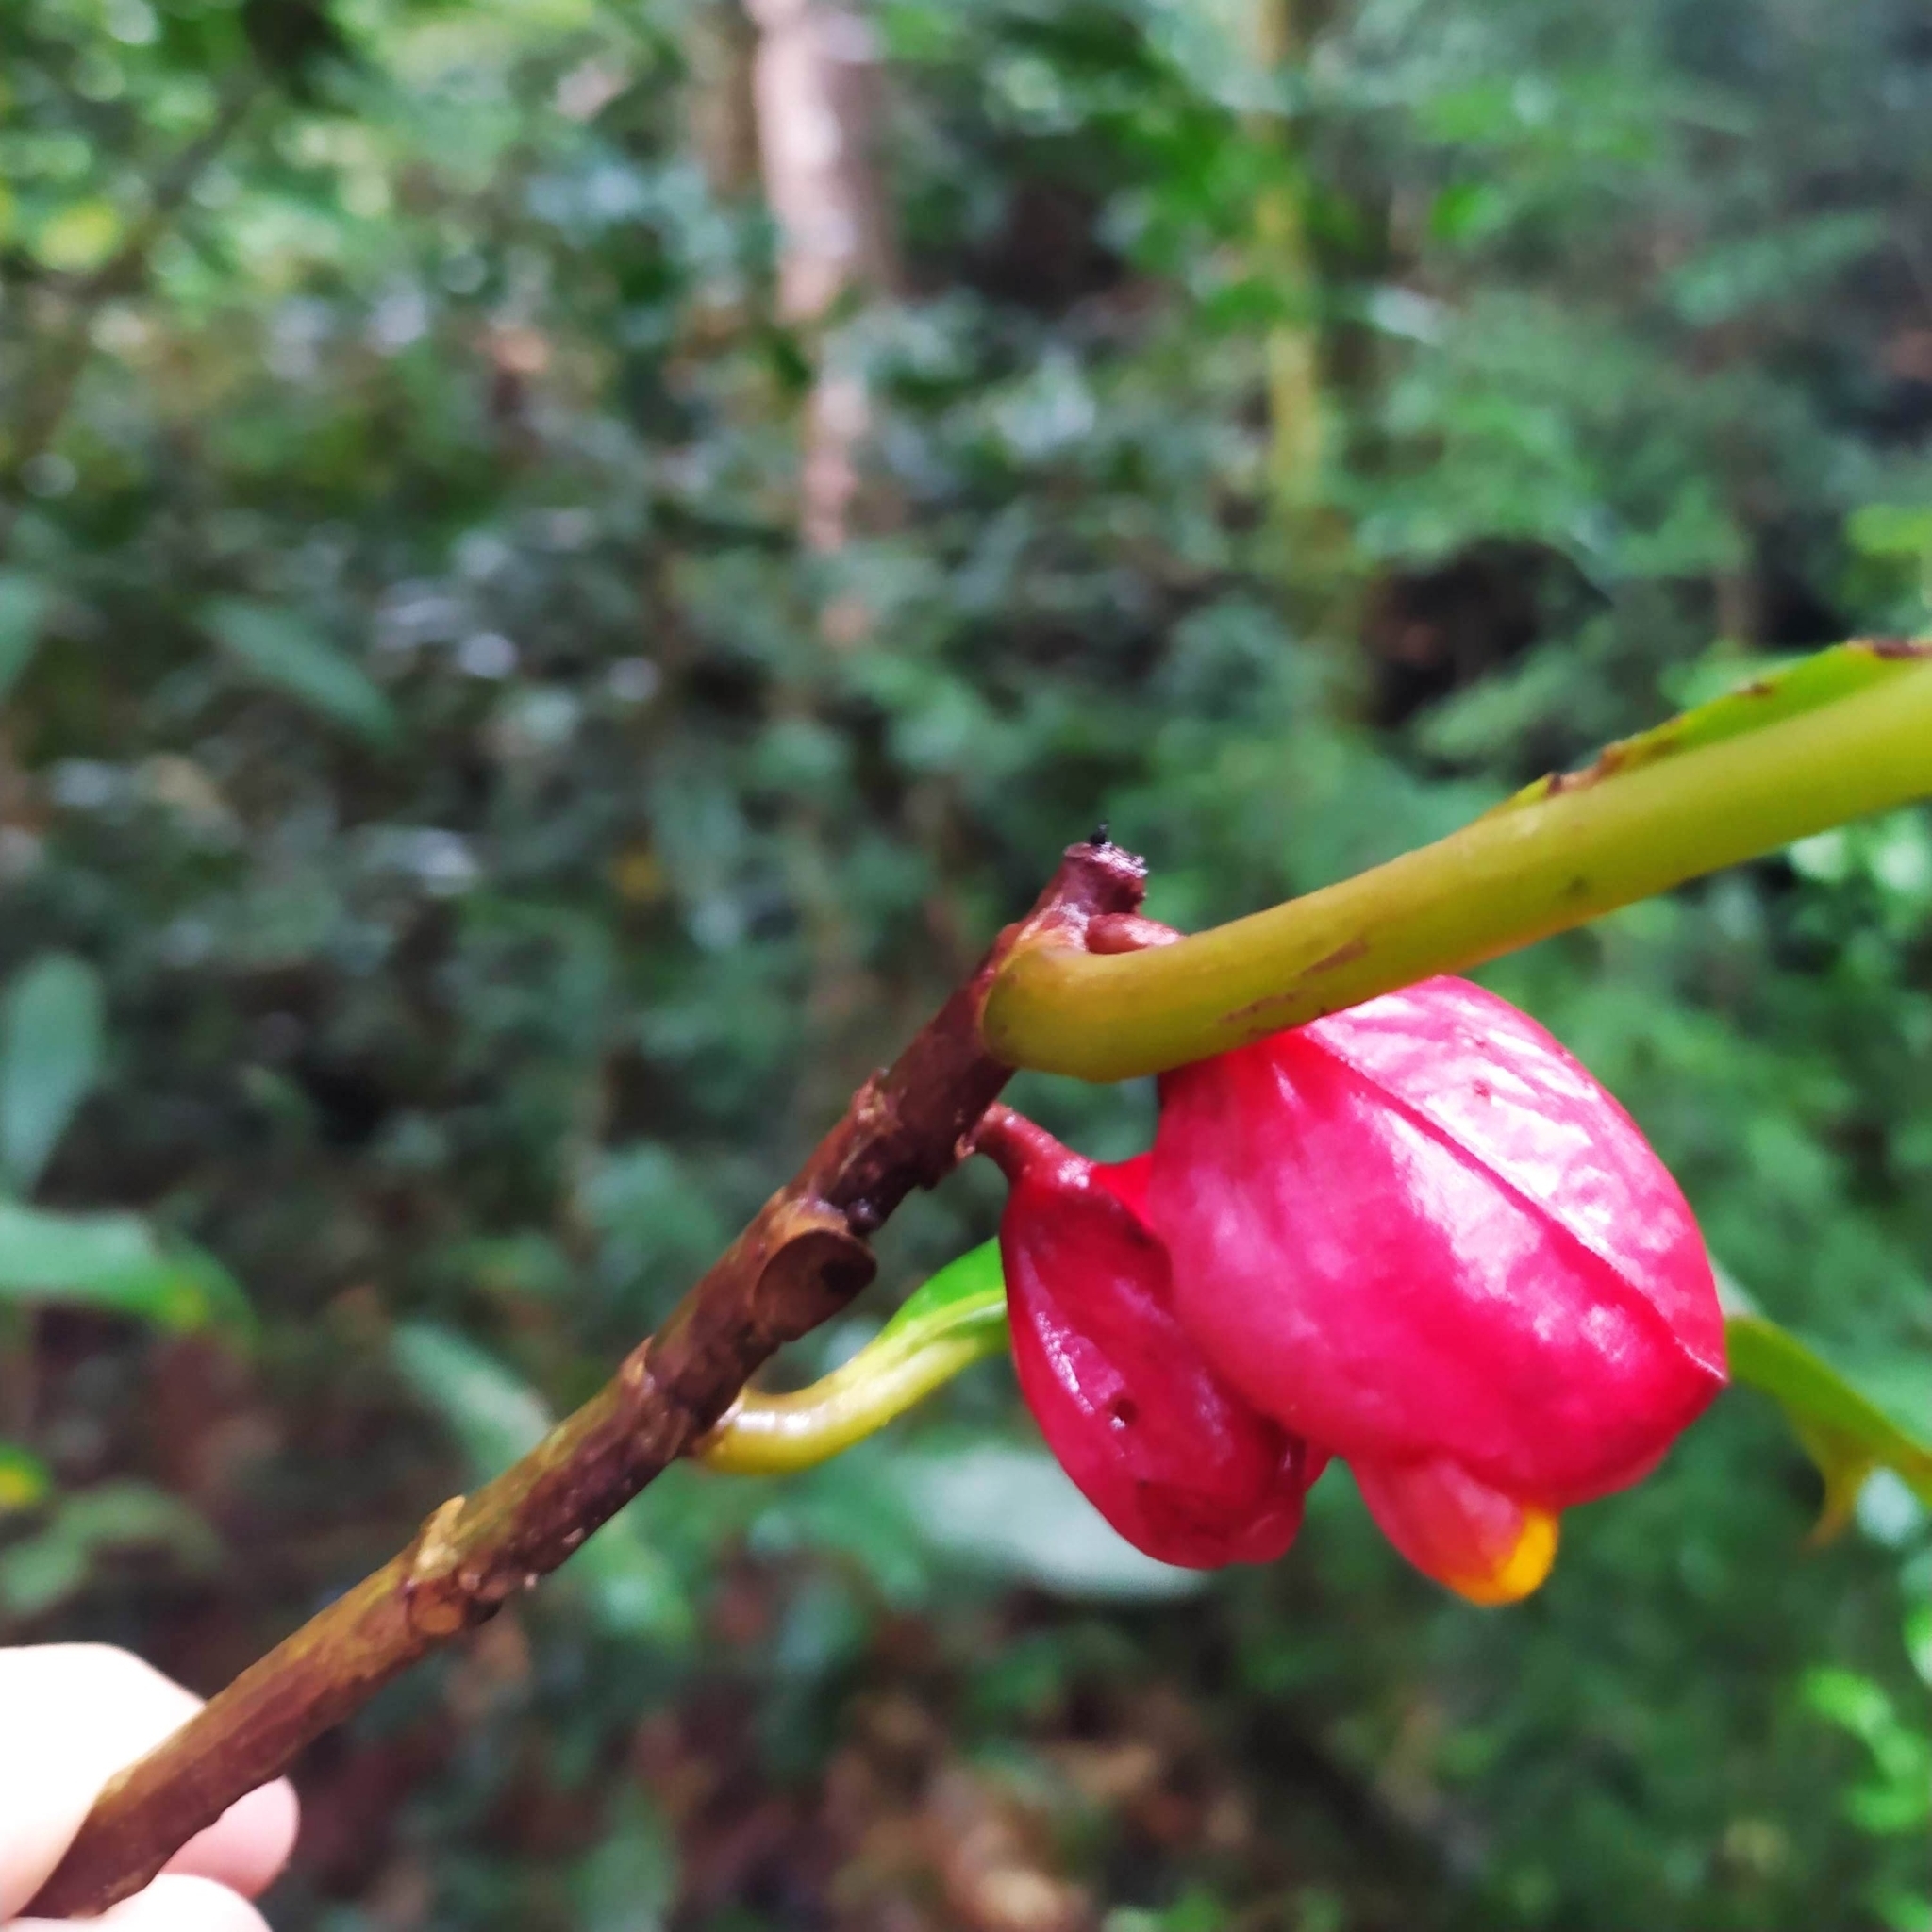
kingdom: Plantae
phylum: Tracheophyta
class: Magnoliopsida
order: Lamiales
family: Gesneriaceae
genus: Drymonia
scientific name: Drymonia coccinea
